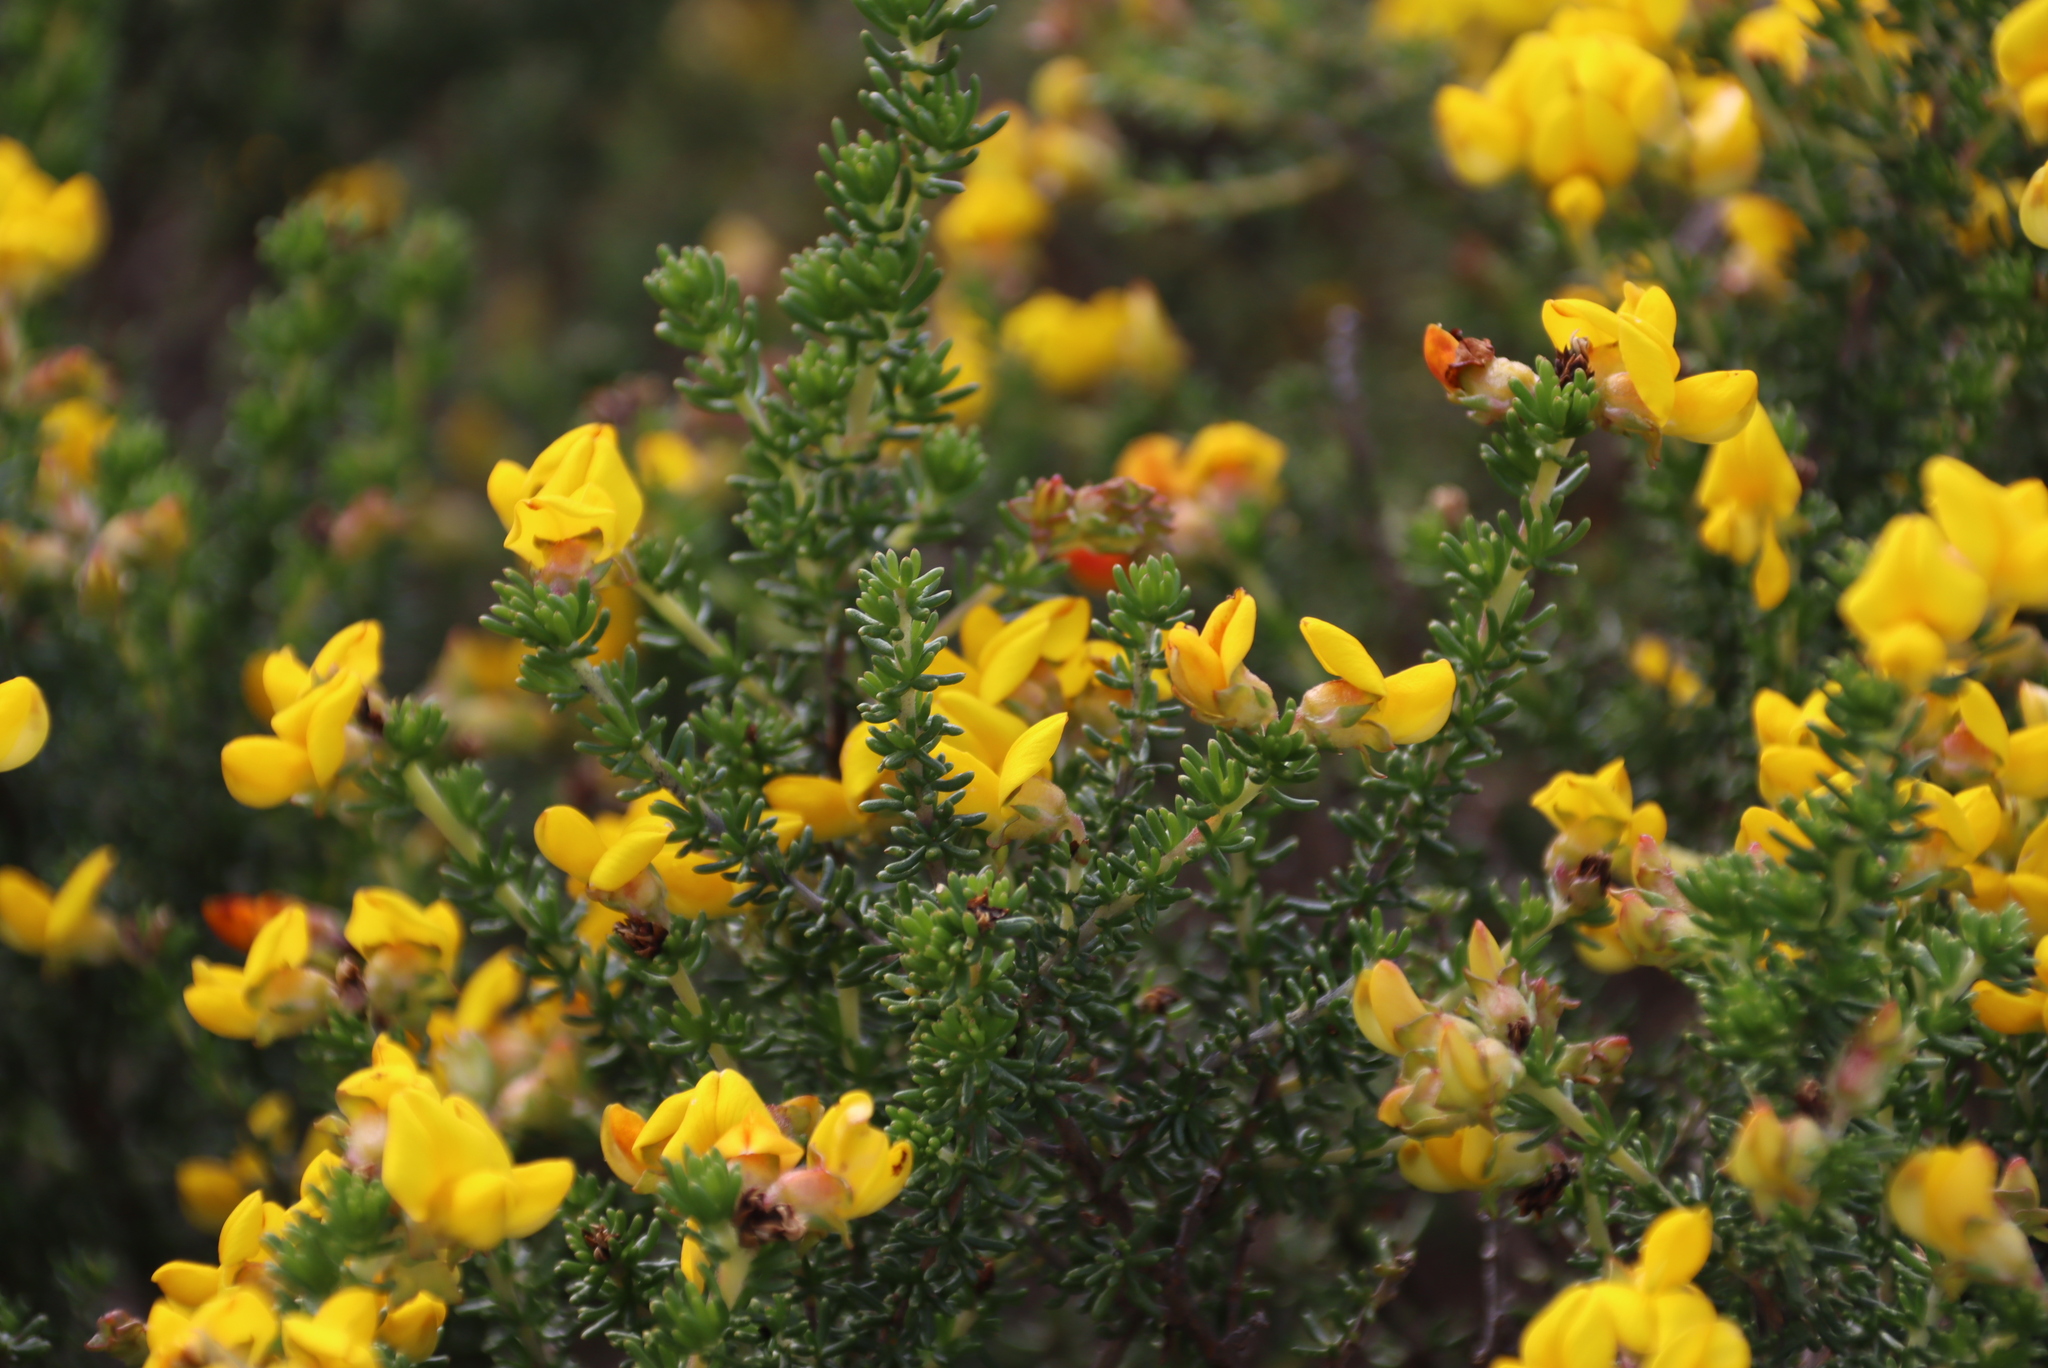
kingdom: Plantae
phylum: Tracheophyta
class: Magnoliopsida
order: Fabales
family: Fabaceae
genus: Aspalathus
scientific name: Aspalathus carnosa
